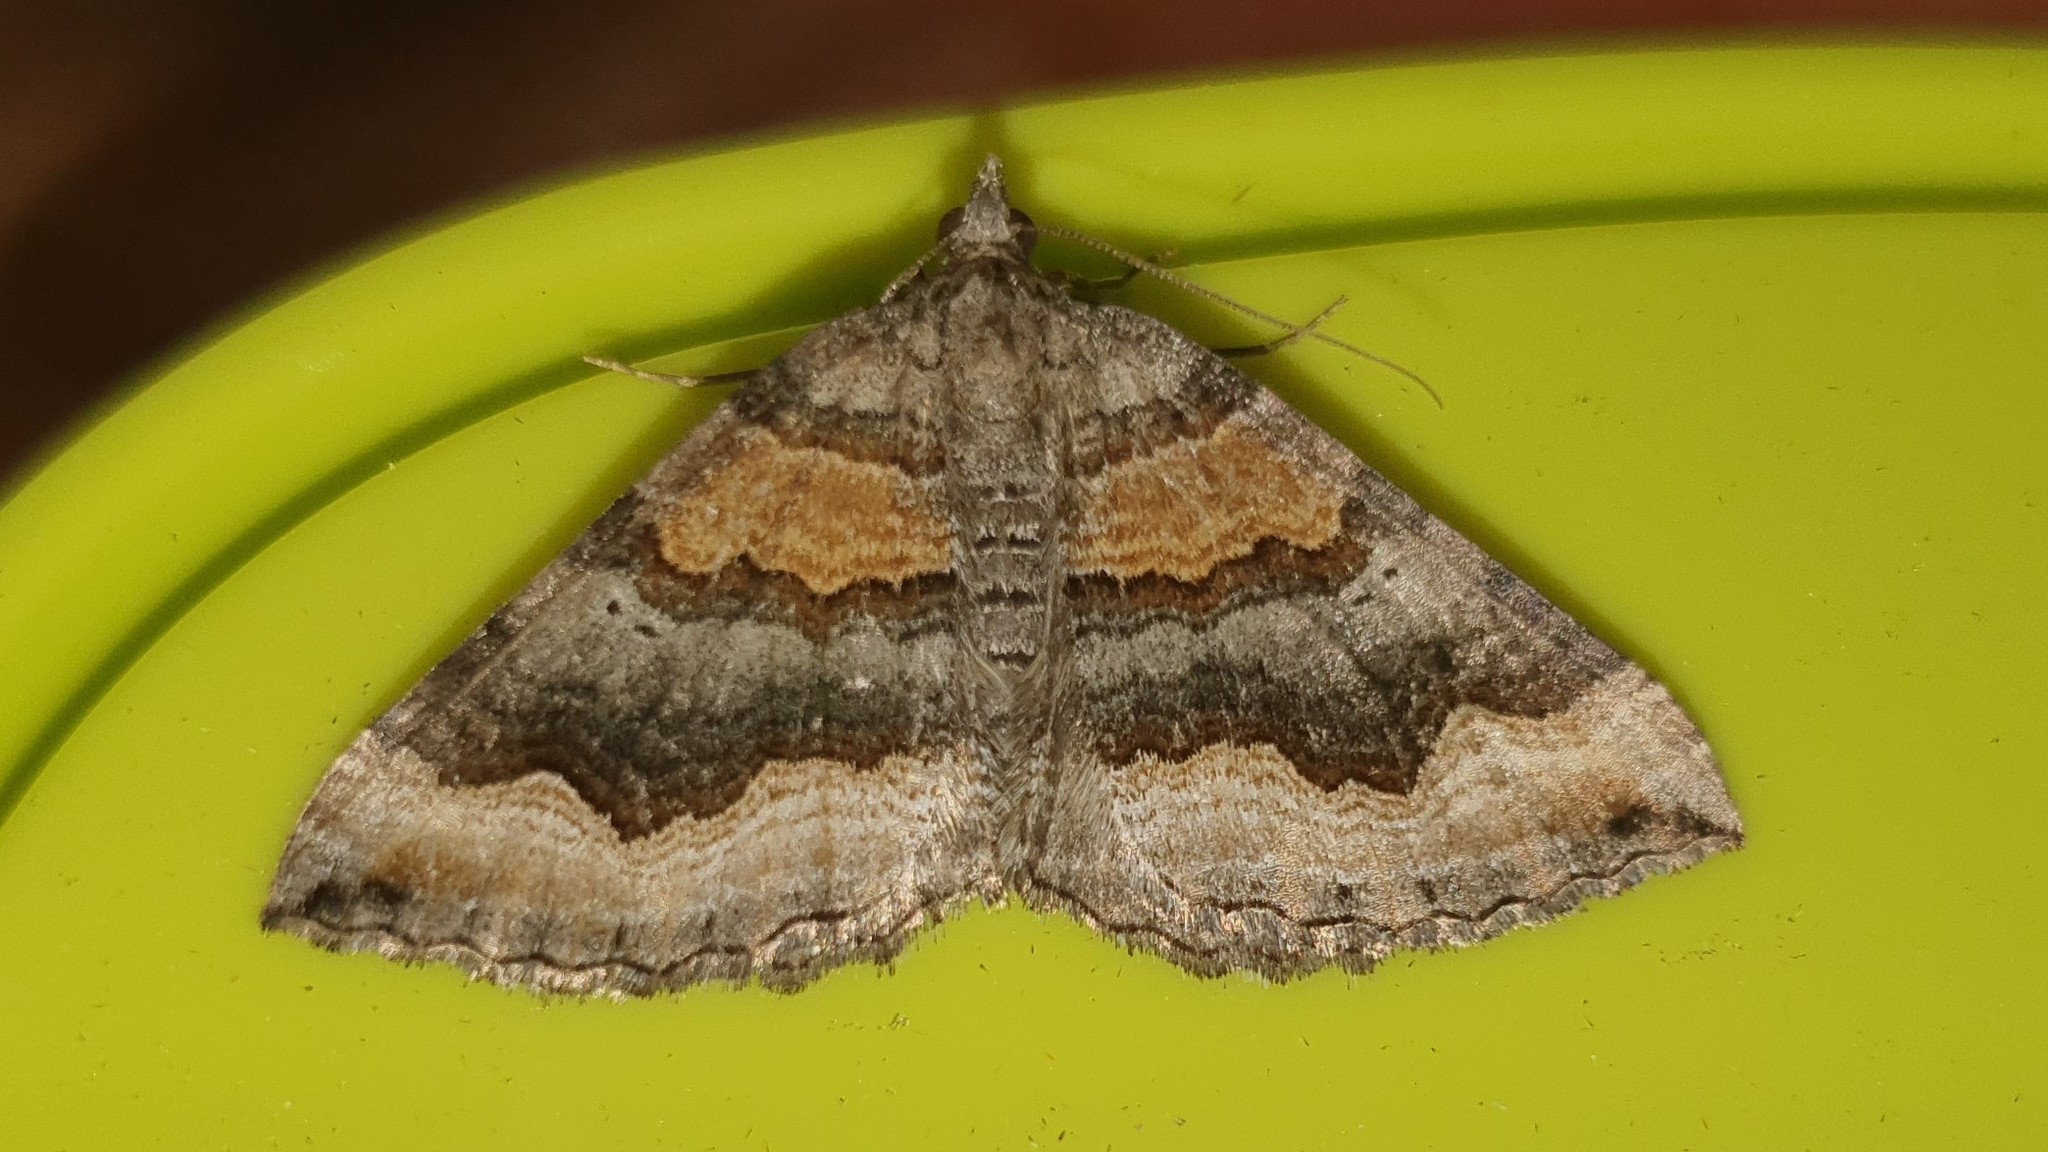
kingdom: Animalia
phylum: Arthropoda
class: Insecta
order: Lepidoptera
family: Geometridae
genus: Scotopteryx
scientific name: Scotopteryx coelinaria
